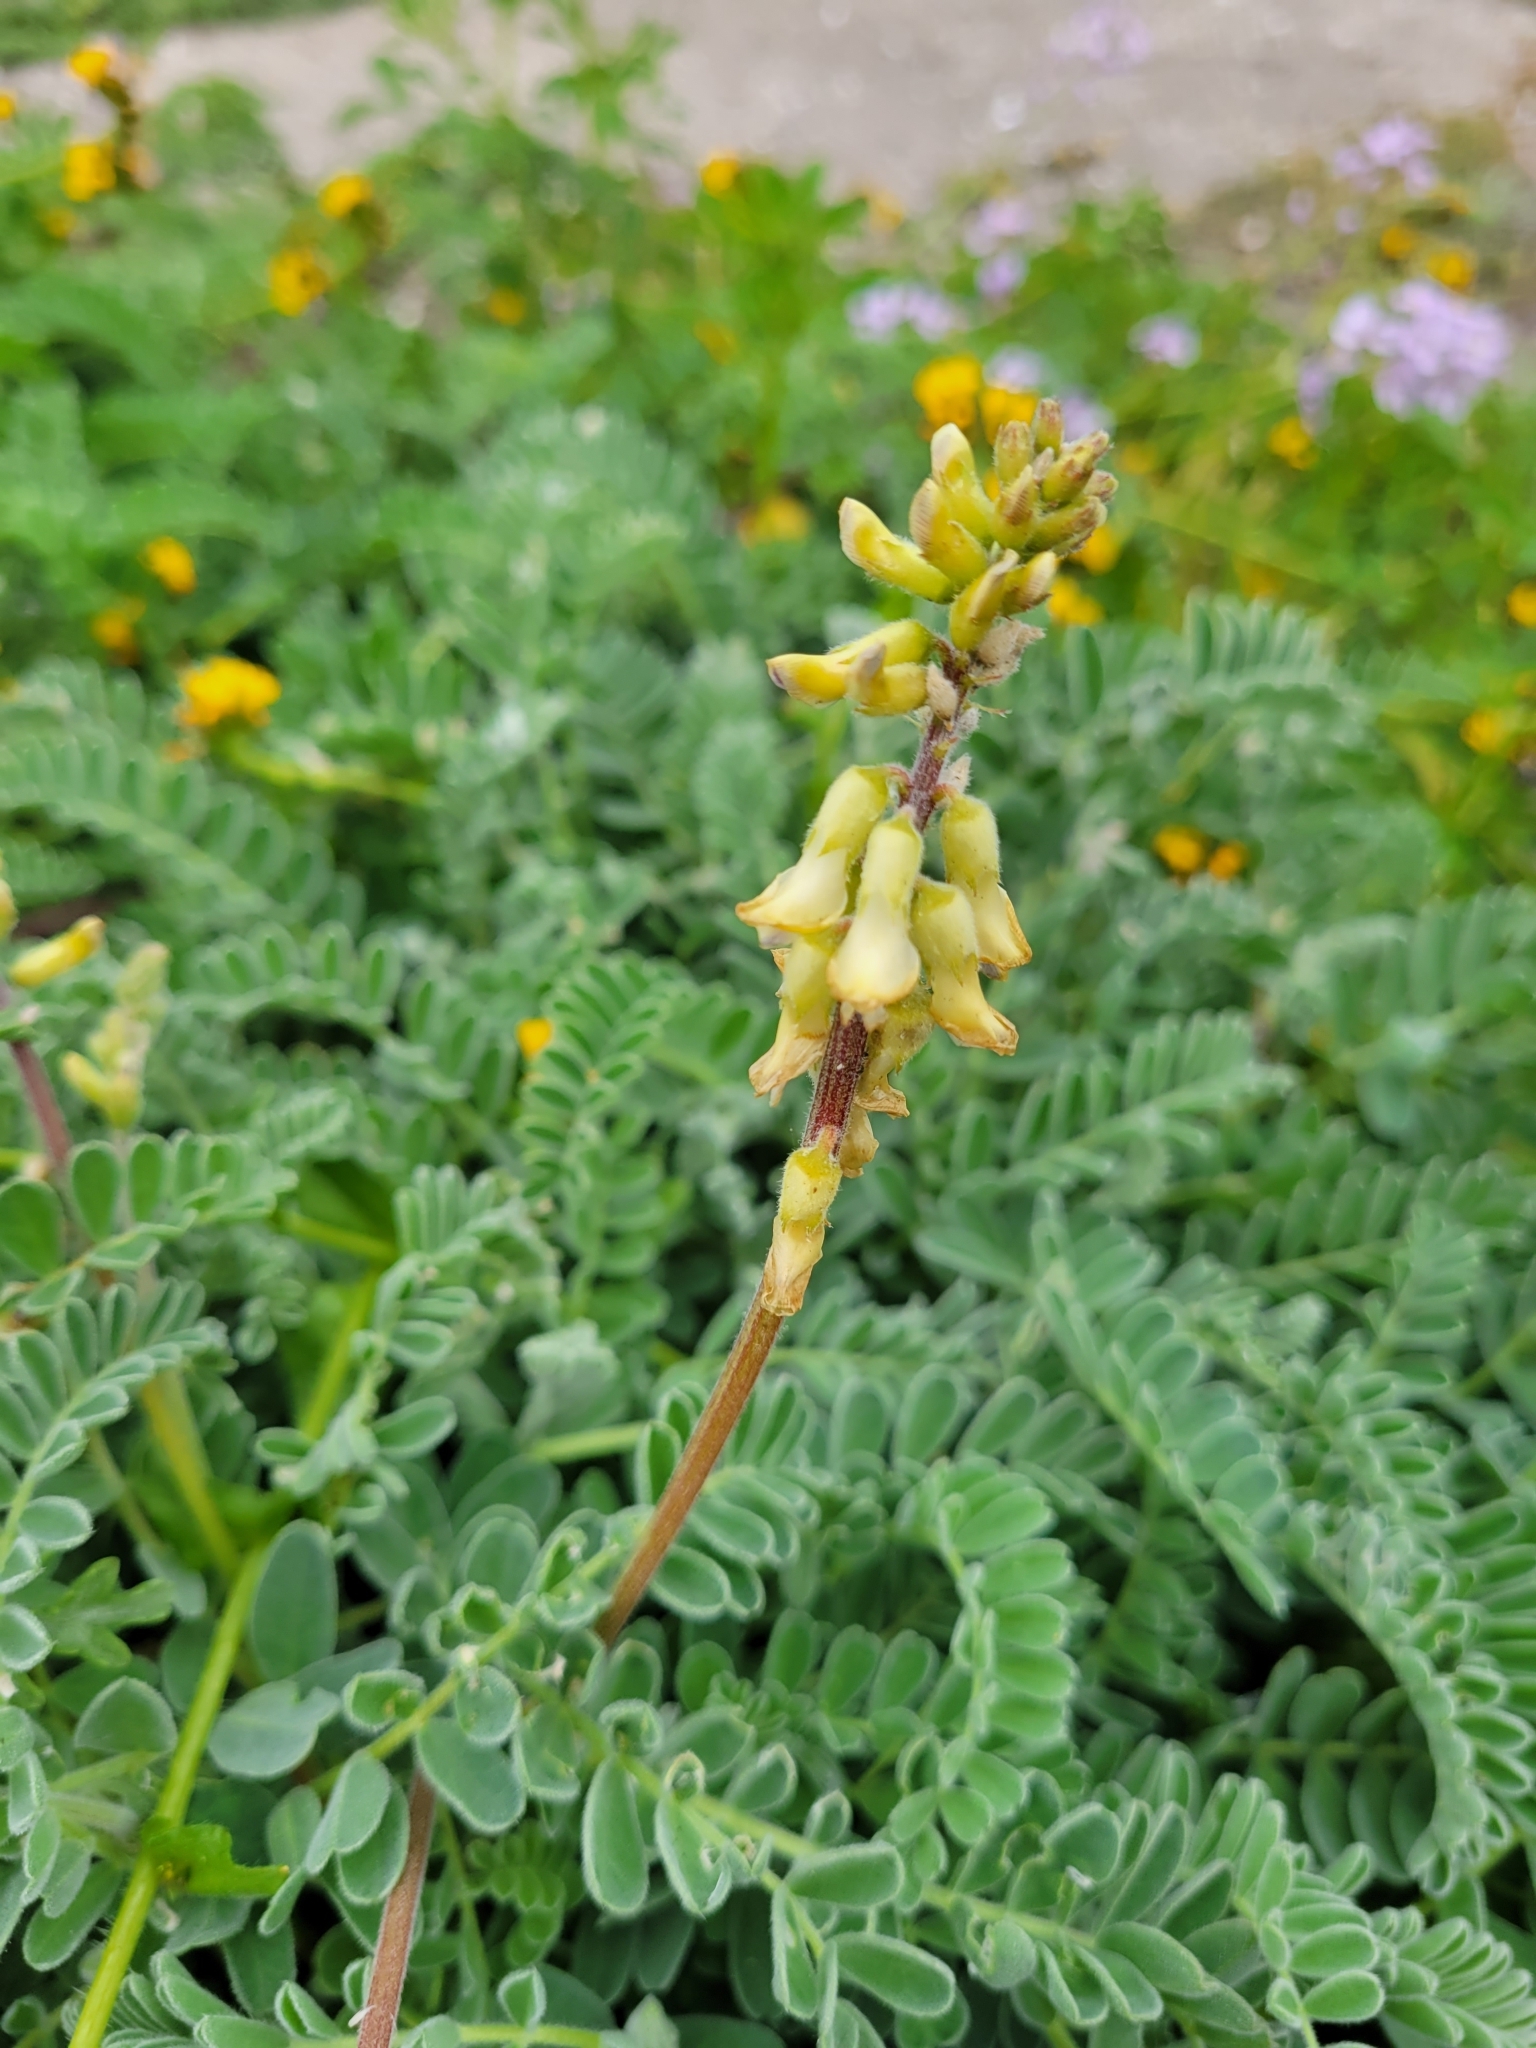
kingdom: Plantae
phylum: Tracheophyta
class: Magnoliopsida
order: Fabales
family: Fabaceae
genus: Astragalus
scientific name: Astragalus nuttallii
